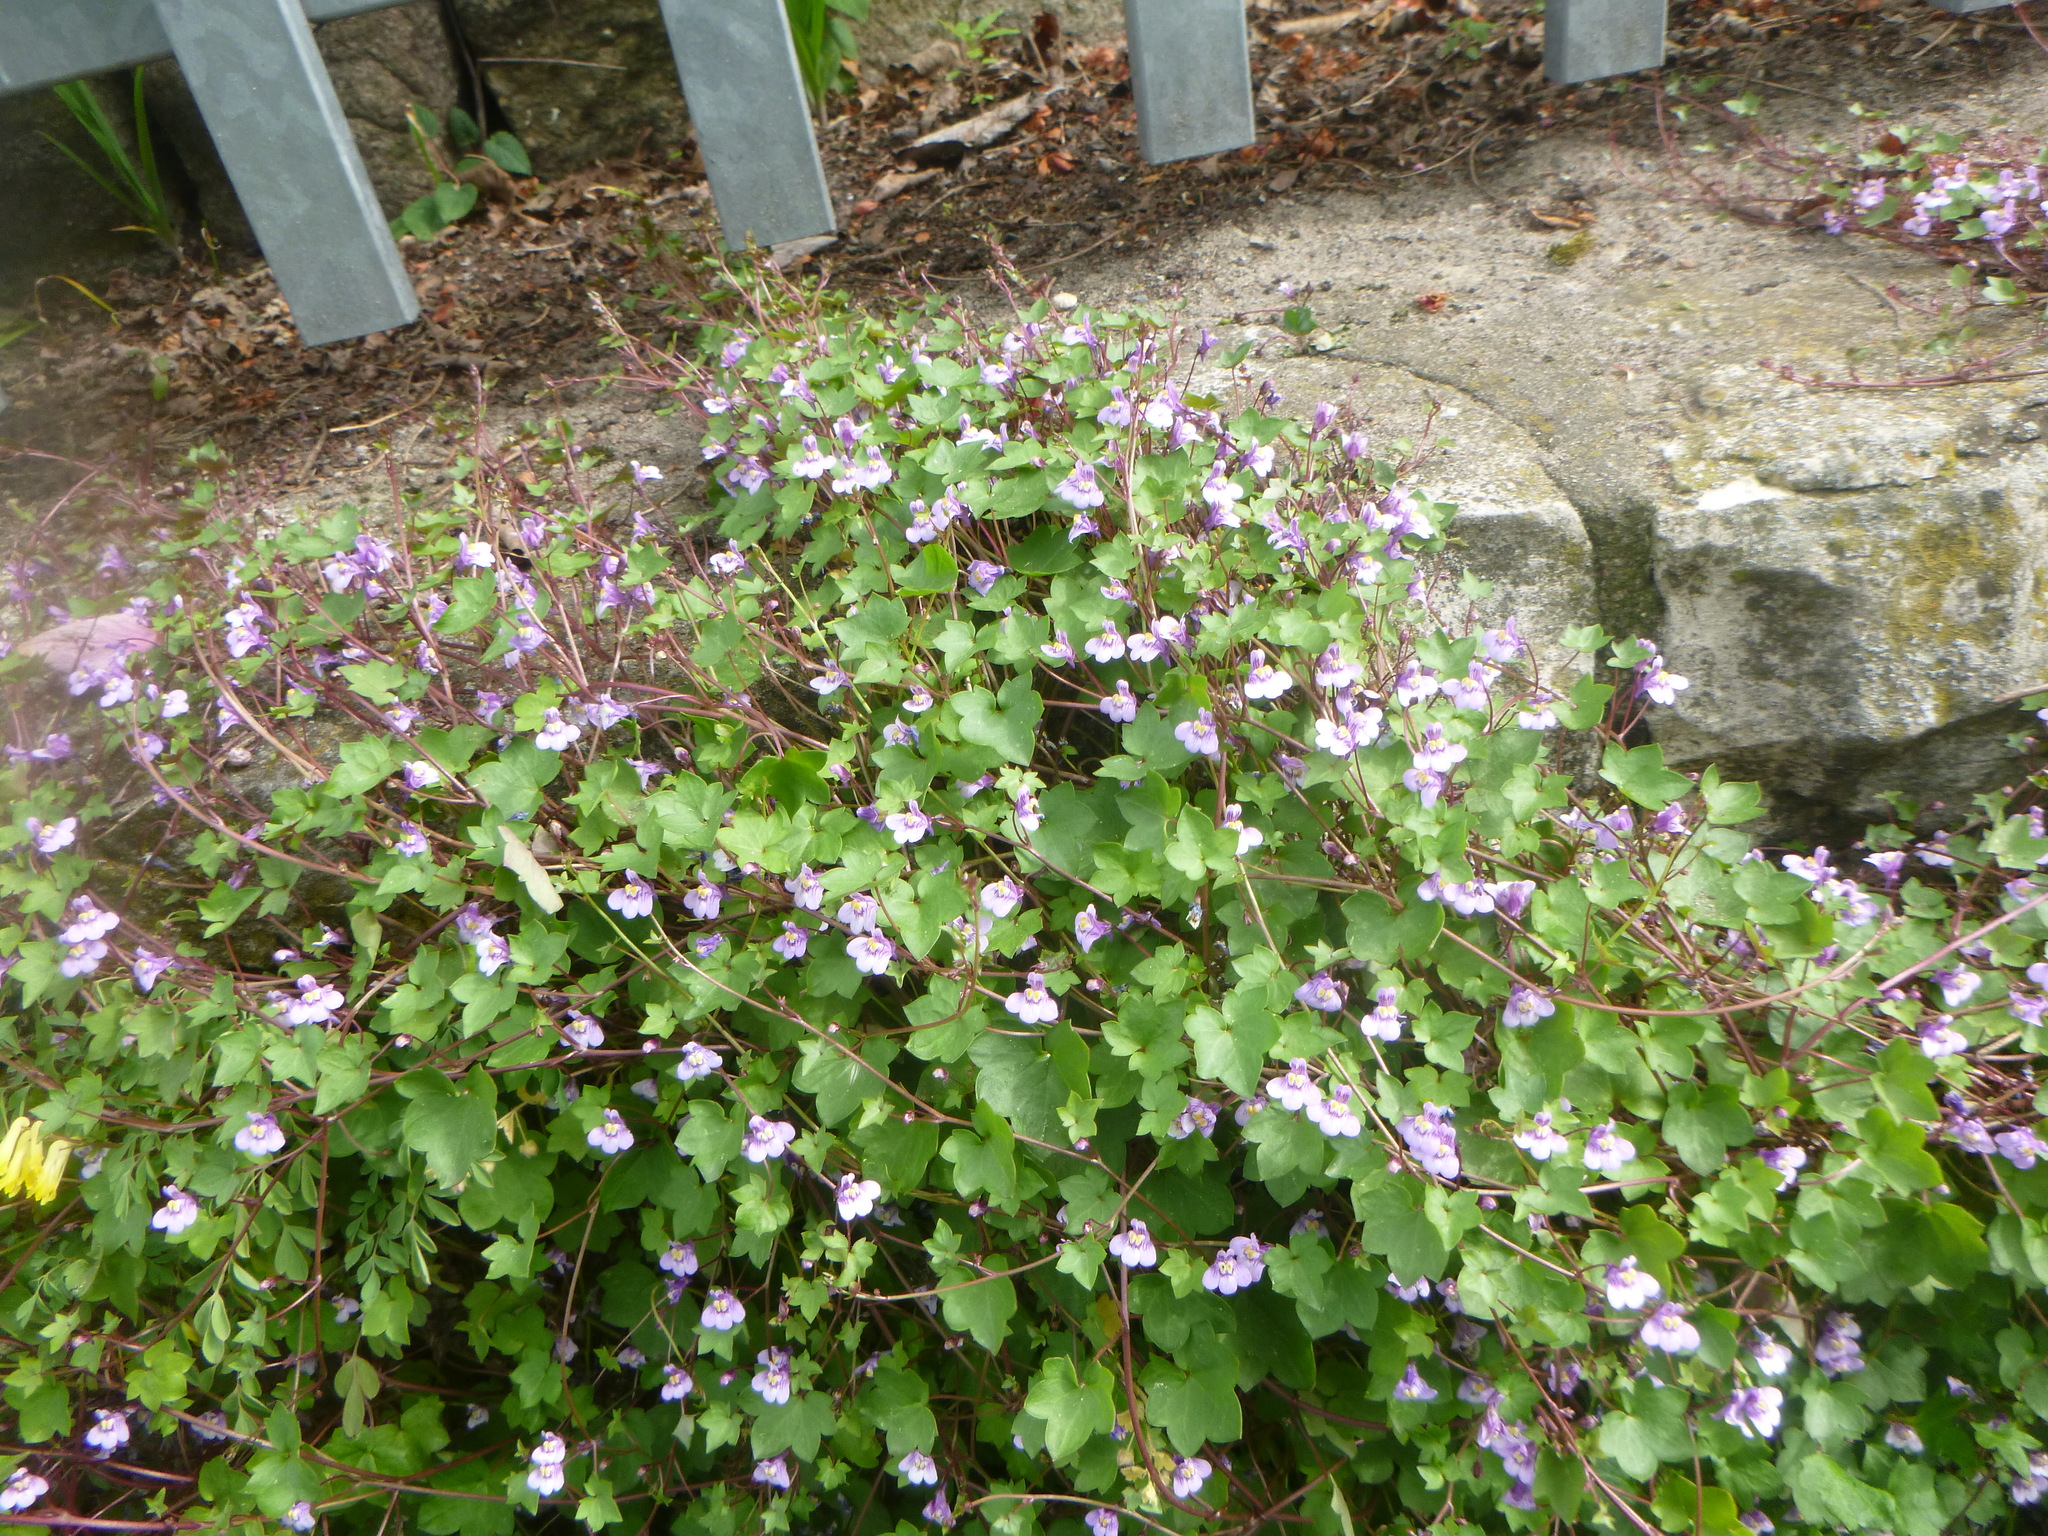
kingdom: Plantae
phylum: Tracheophyta
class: Magnoliopsida
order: Lamiales
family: Plantaginaceae
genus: Cymbalaria
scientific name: Cymbalaria muralis
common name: Ivy-leaved toadflax
